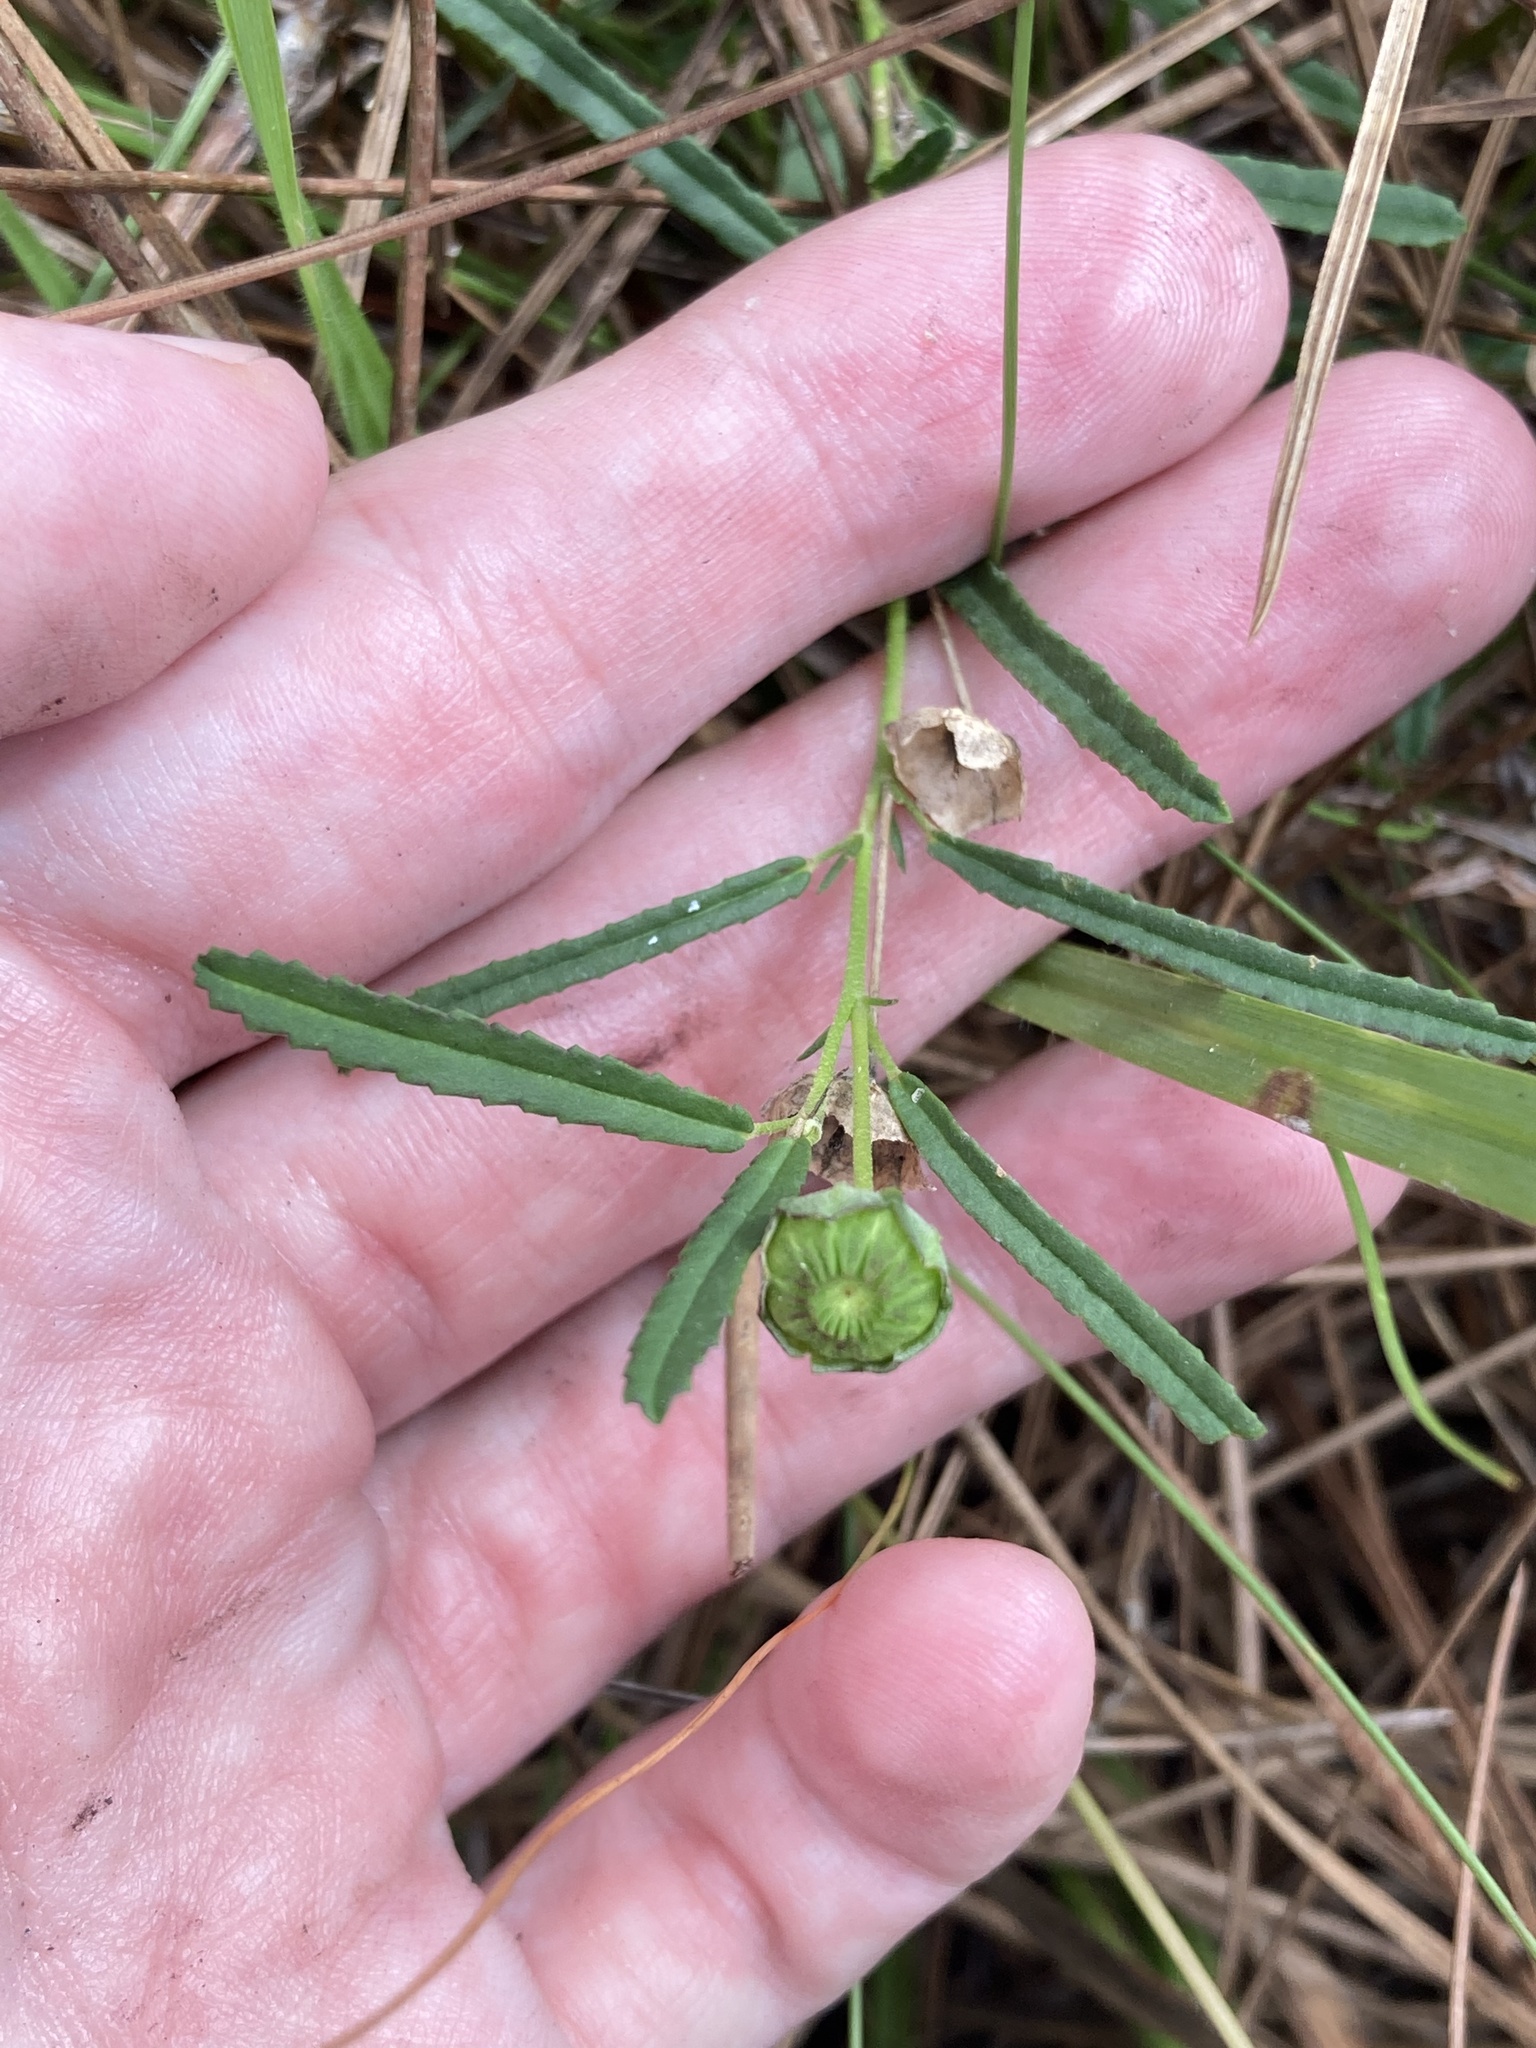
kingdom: Plantae
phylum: Tracheophyta
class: Magnoliopsida
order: Malvales
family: Malvaceae
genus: Sida
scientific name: Sida elliottii
